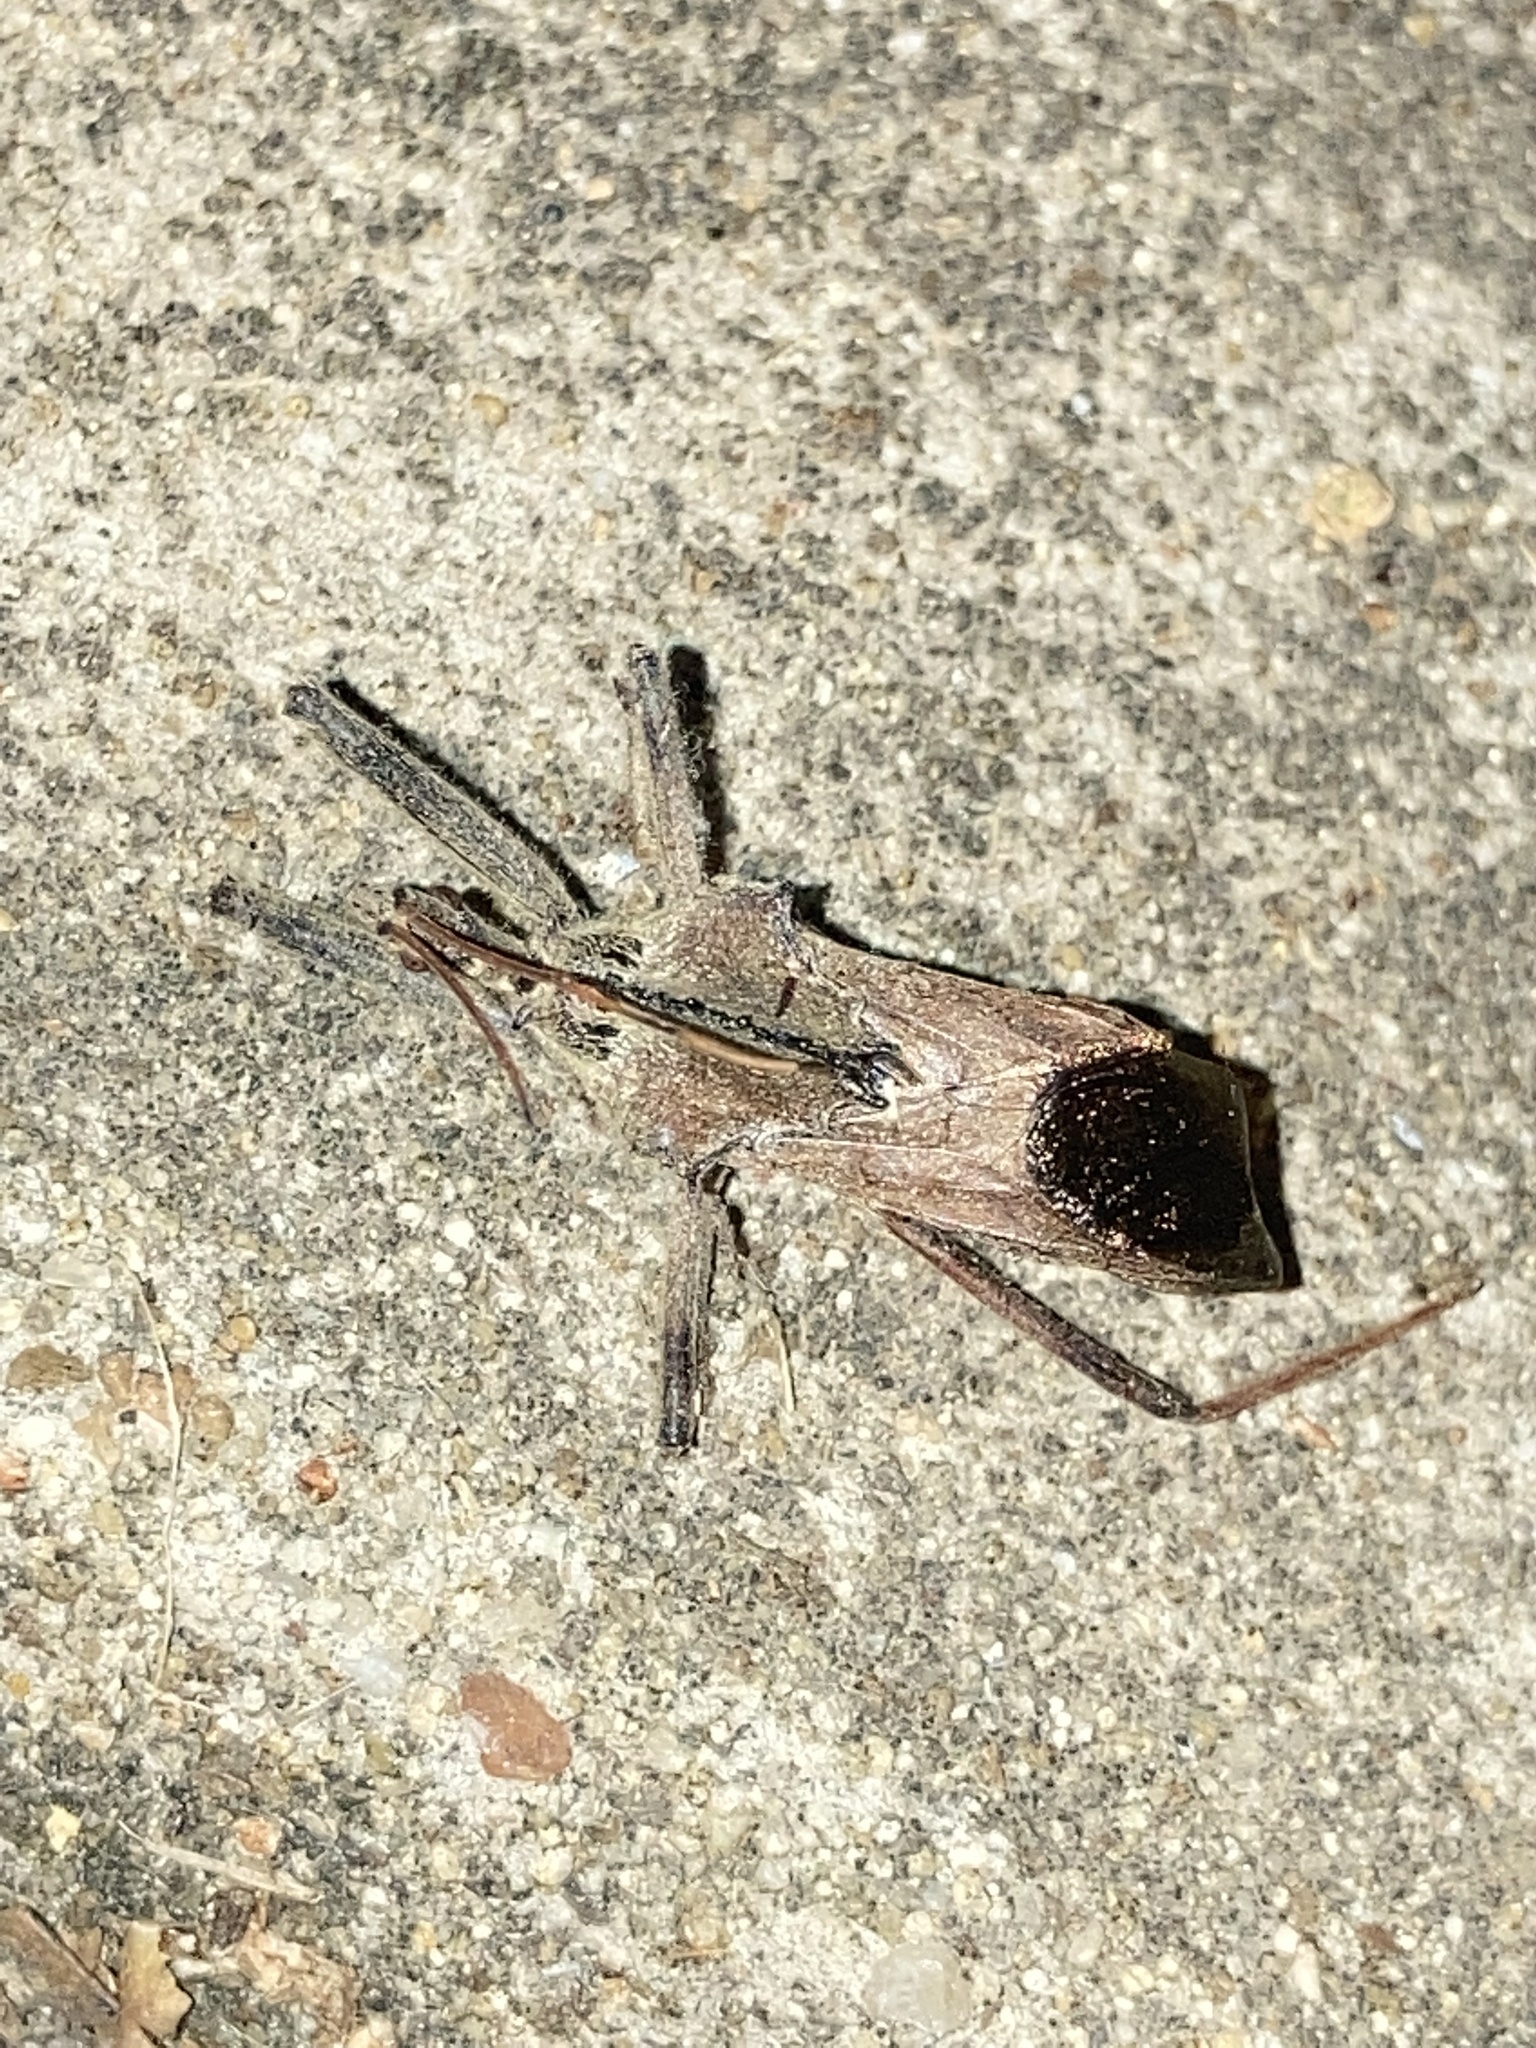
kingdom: Animalia
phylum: Arthropoda
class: Insecta
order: Hemiptera
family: Reduviidae
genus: Arilus
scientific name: Arilus cristatus
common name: North american wheel bug
